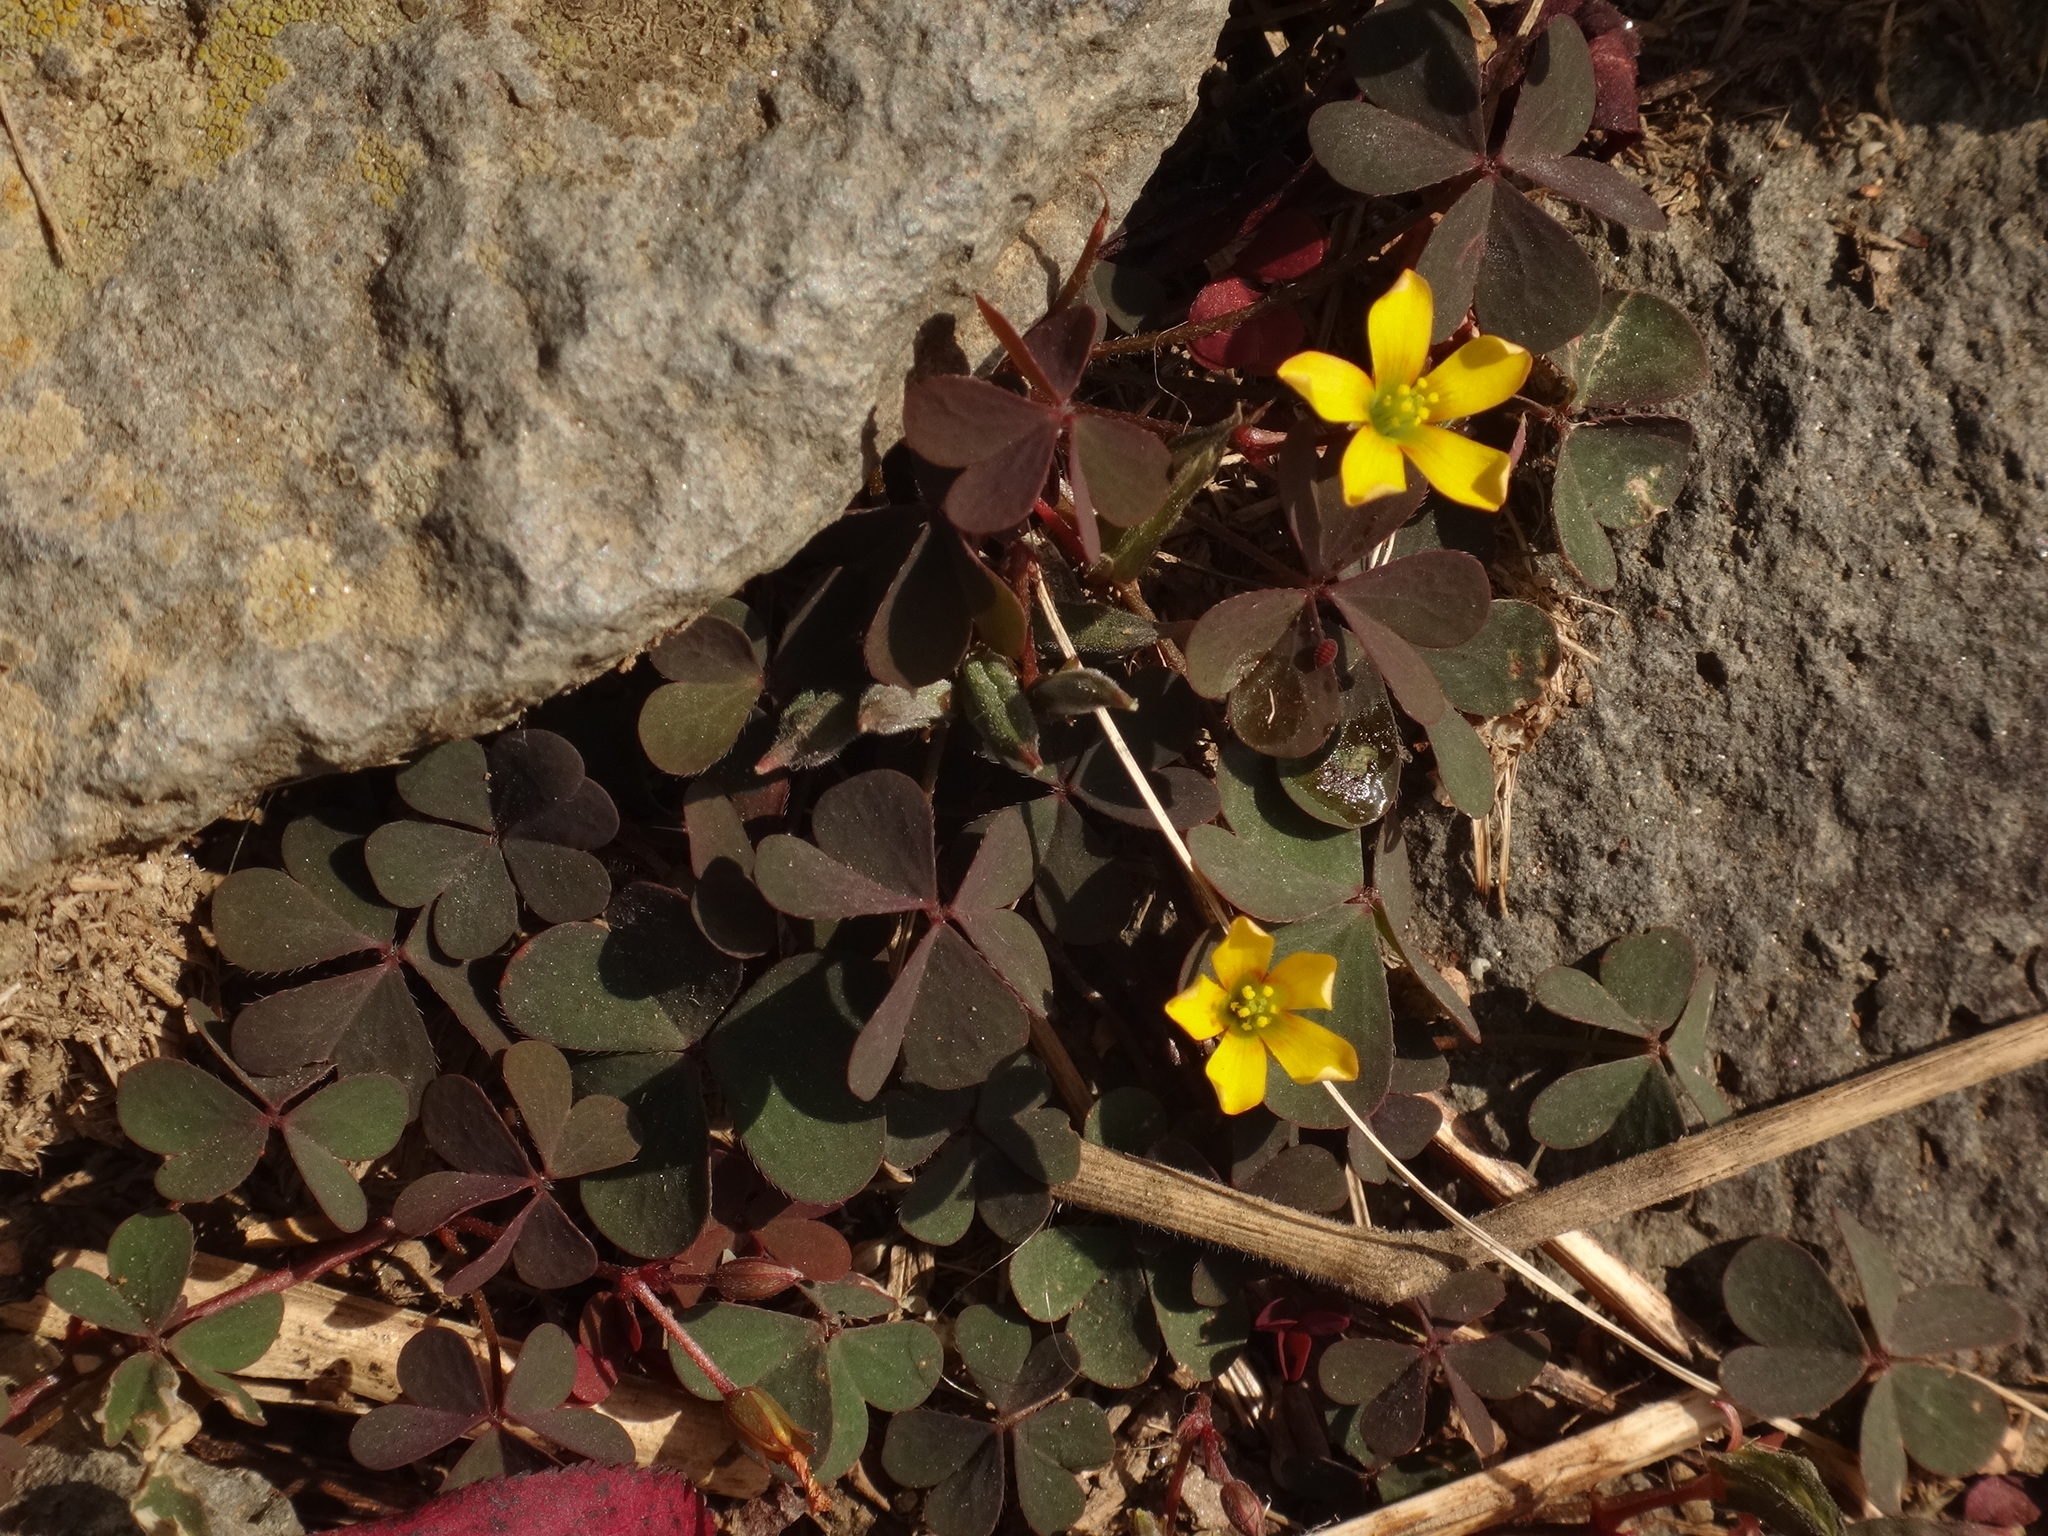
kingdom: Plantae
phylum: Tracheophyta
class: Magnoliopsida
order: Oxalidales
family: Oxalidaceae
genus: Oxalis
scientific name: Oxalis corniculata
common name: Procumbent yellow-sorrel
